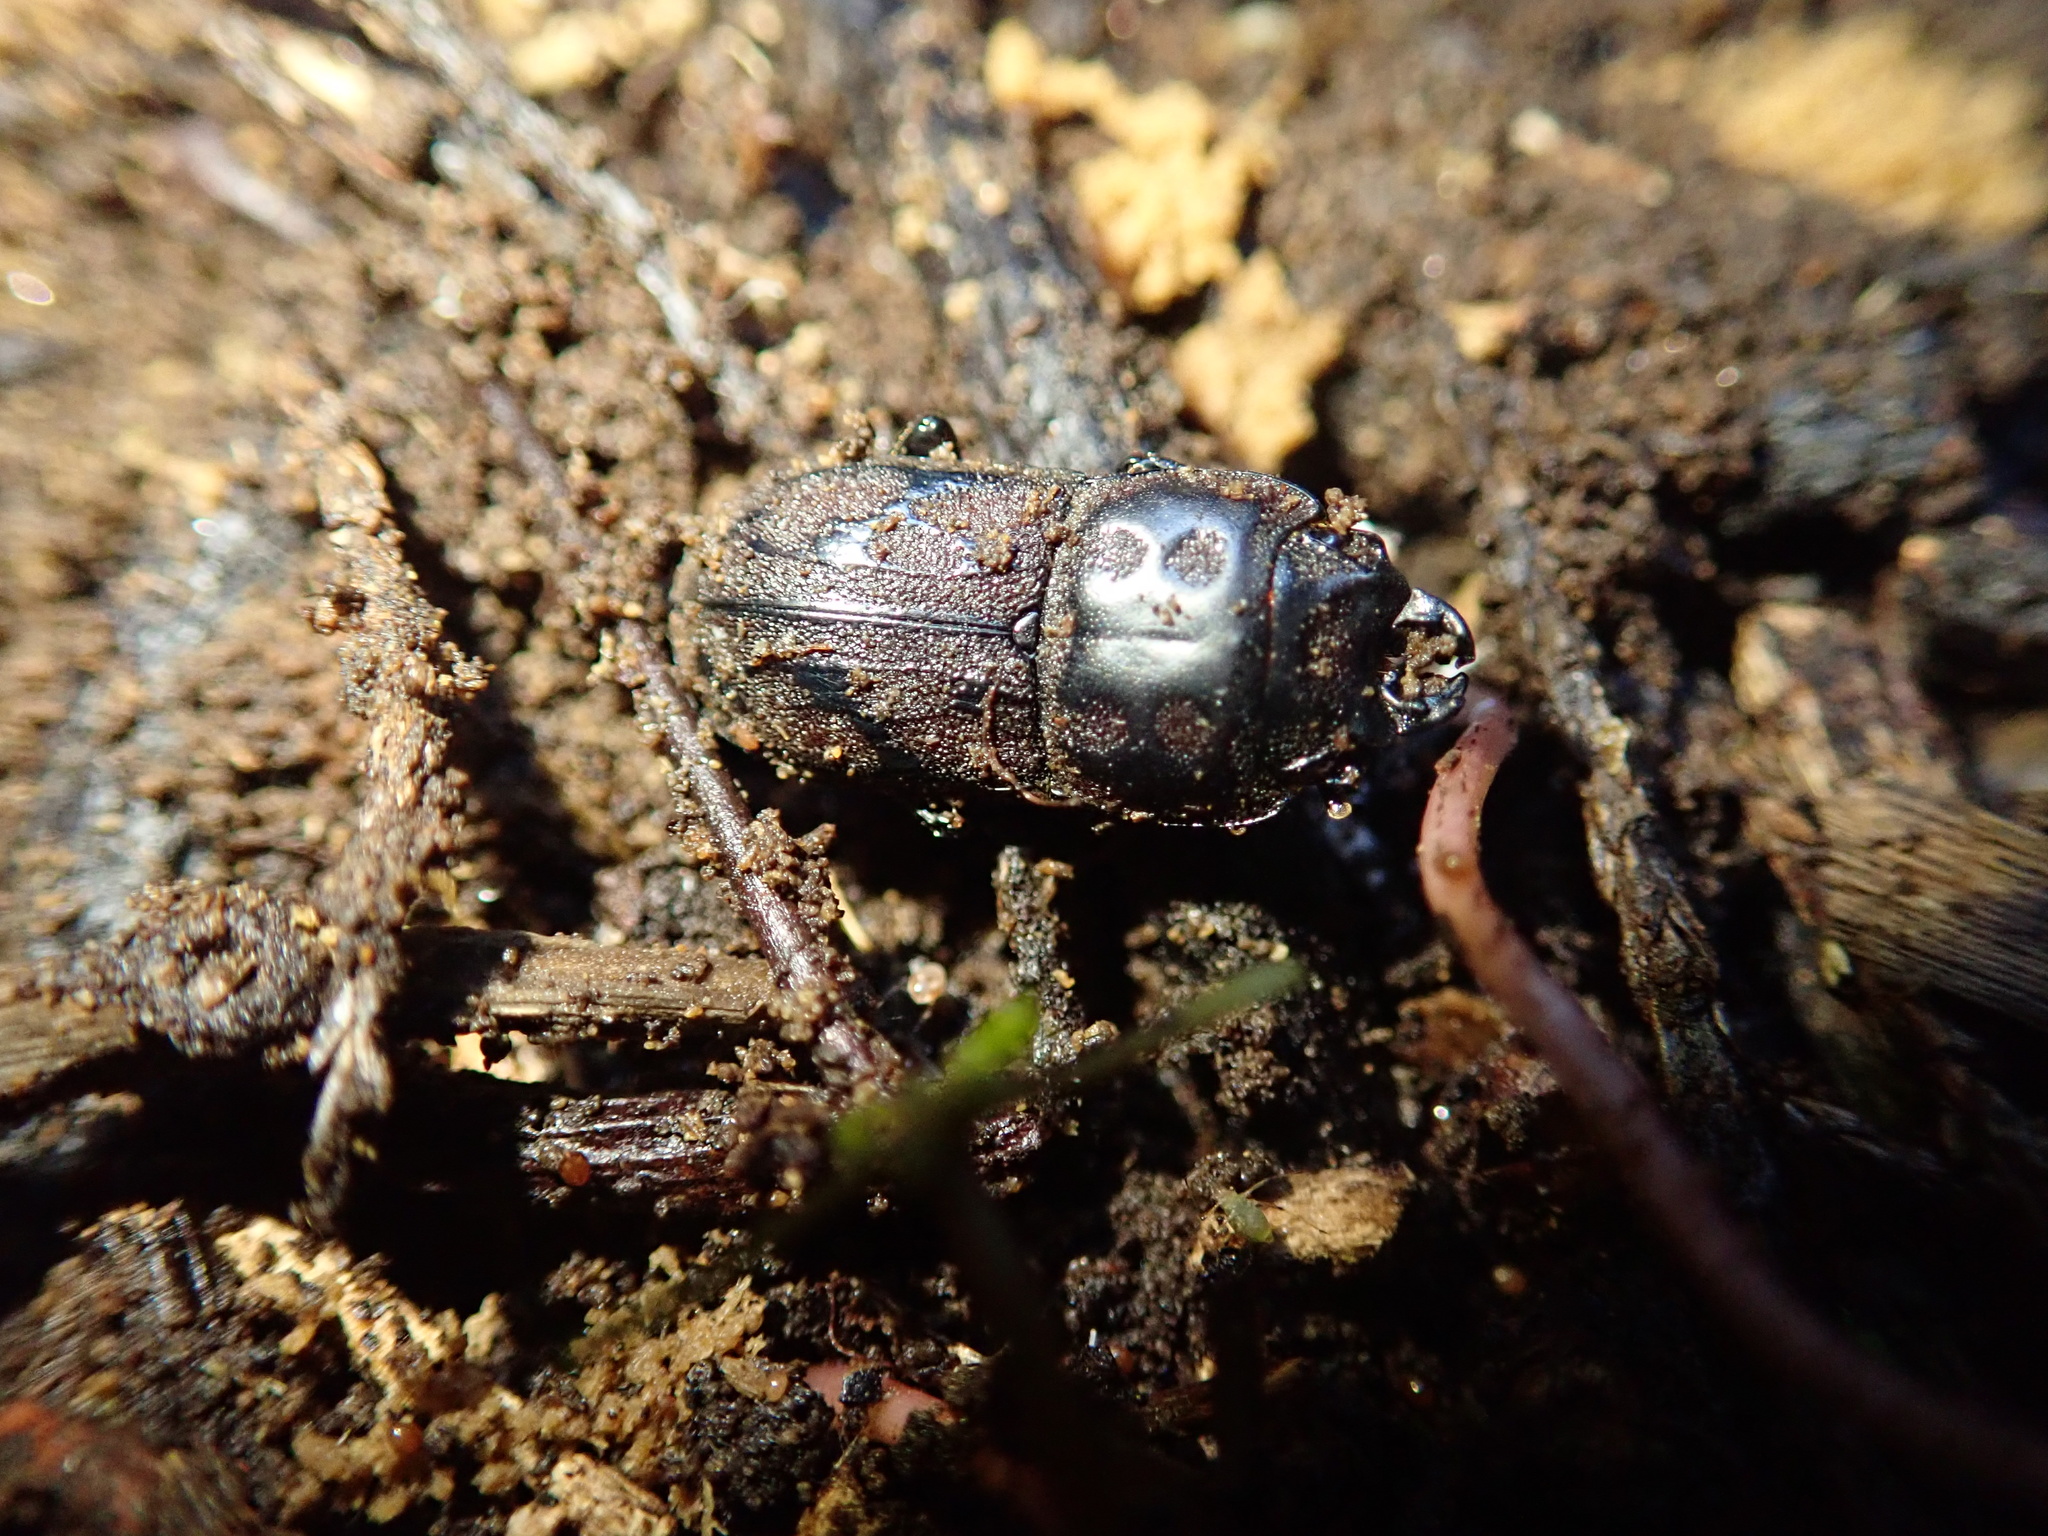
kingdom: Animalia
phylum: Arthropoda
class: Insecta
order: Coleoptera
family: Lucanidae
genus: Paralissotes
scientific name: Paralissotes reticulatus
